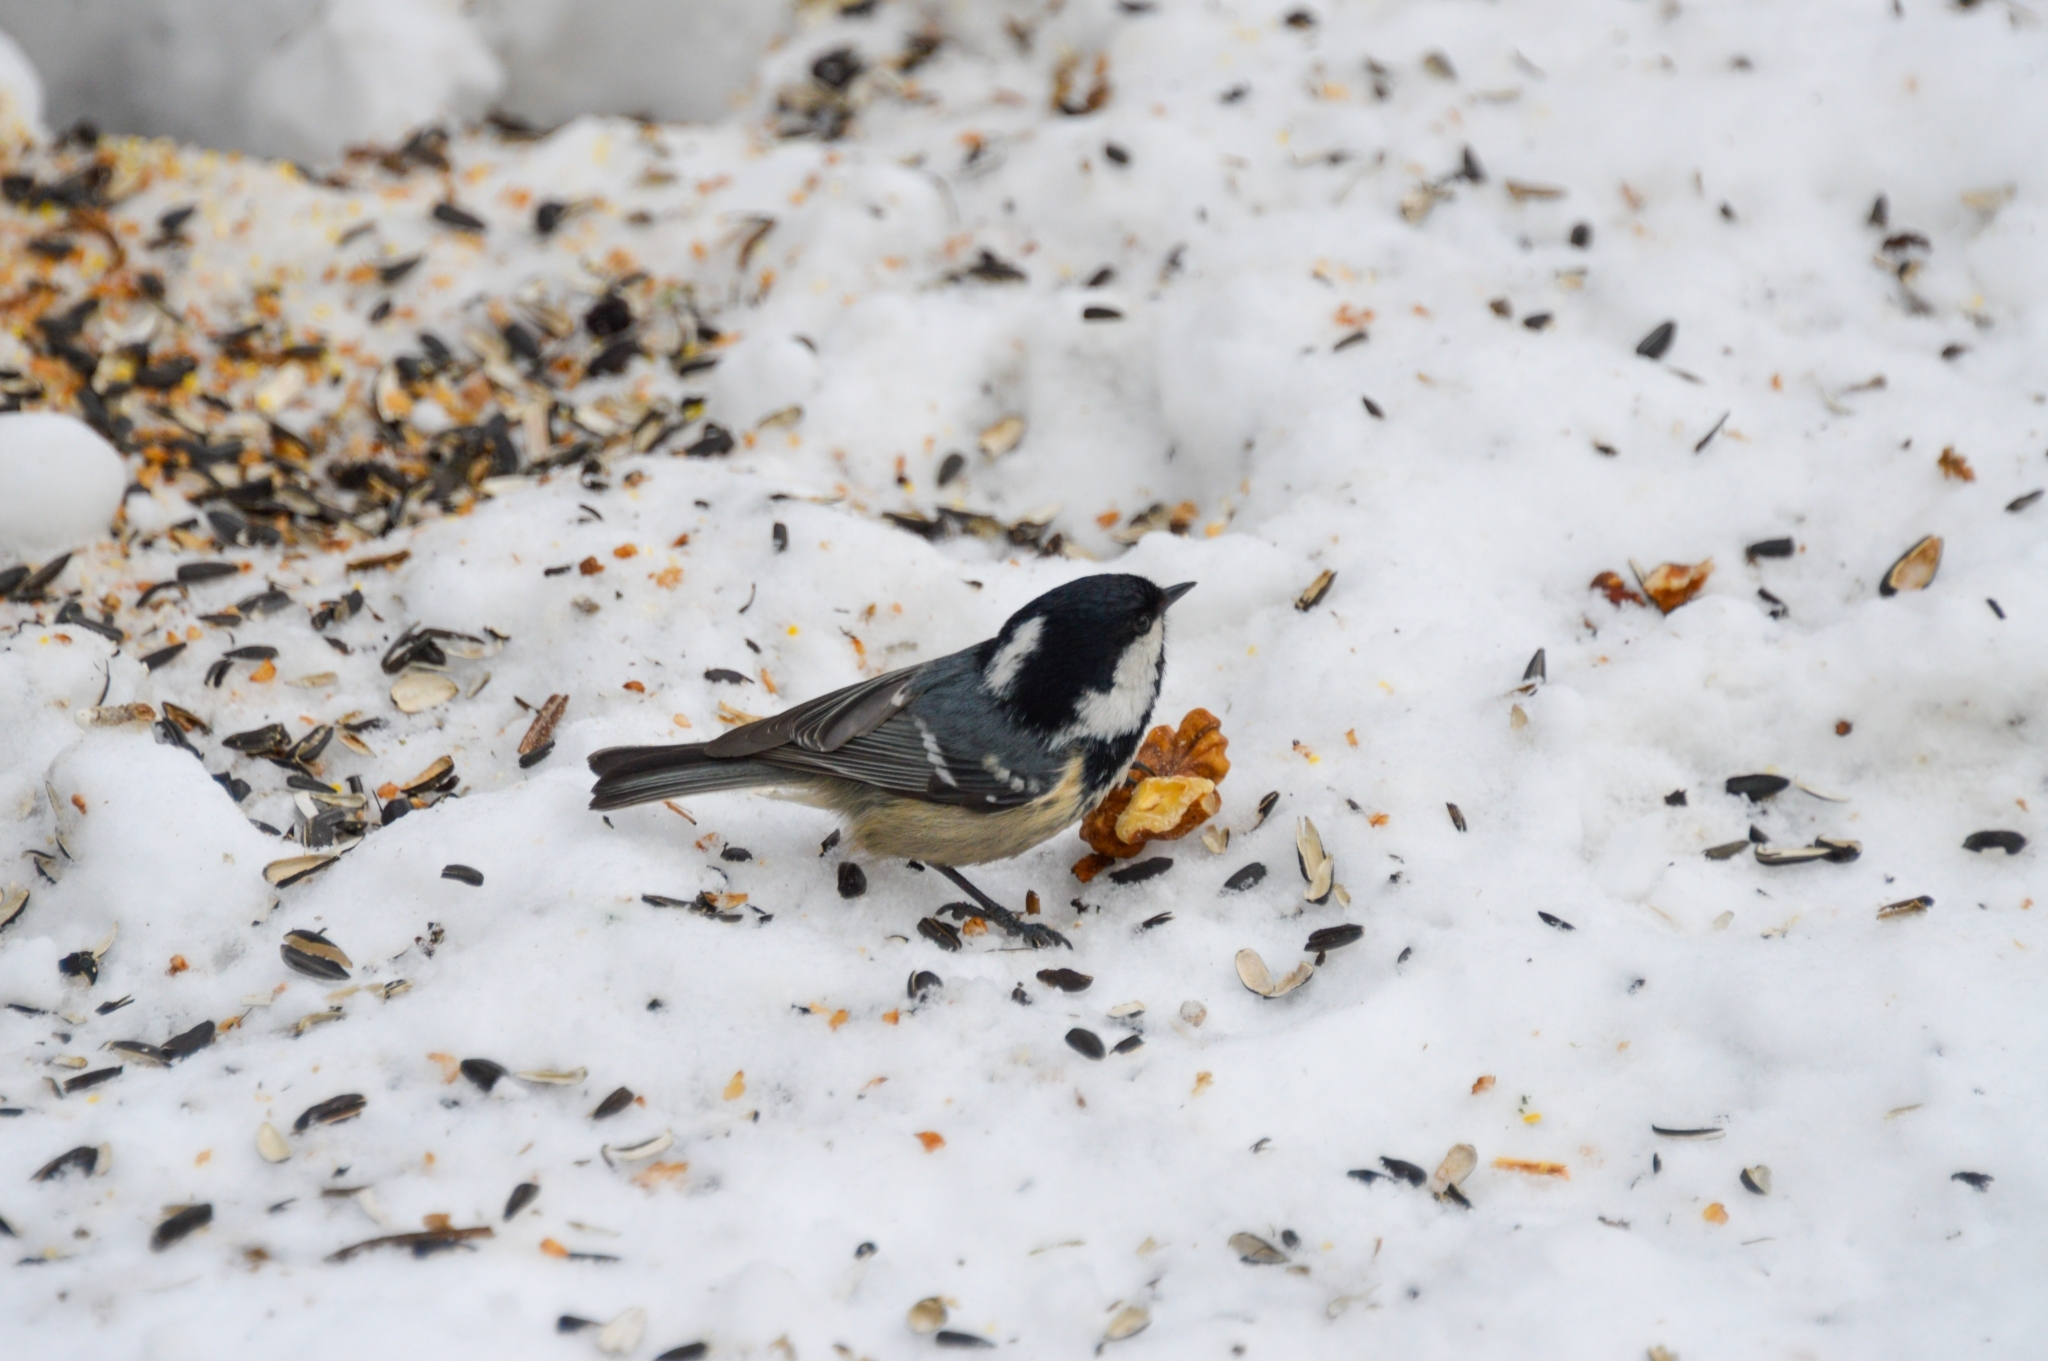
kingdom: Animalia
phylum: Chordata
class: Aves
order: Passeriformes
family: Paridae
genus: Periparus
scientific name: Periparus ater
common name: Coal tit
